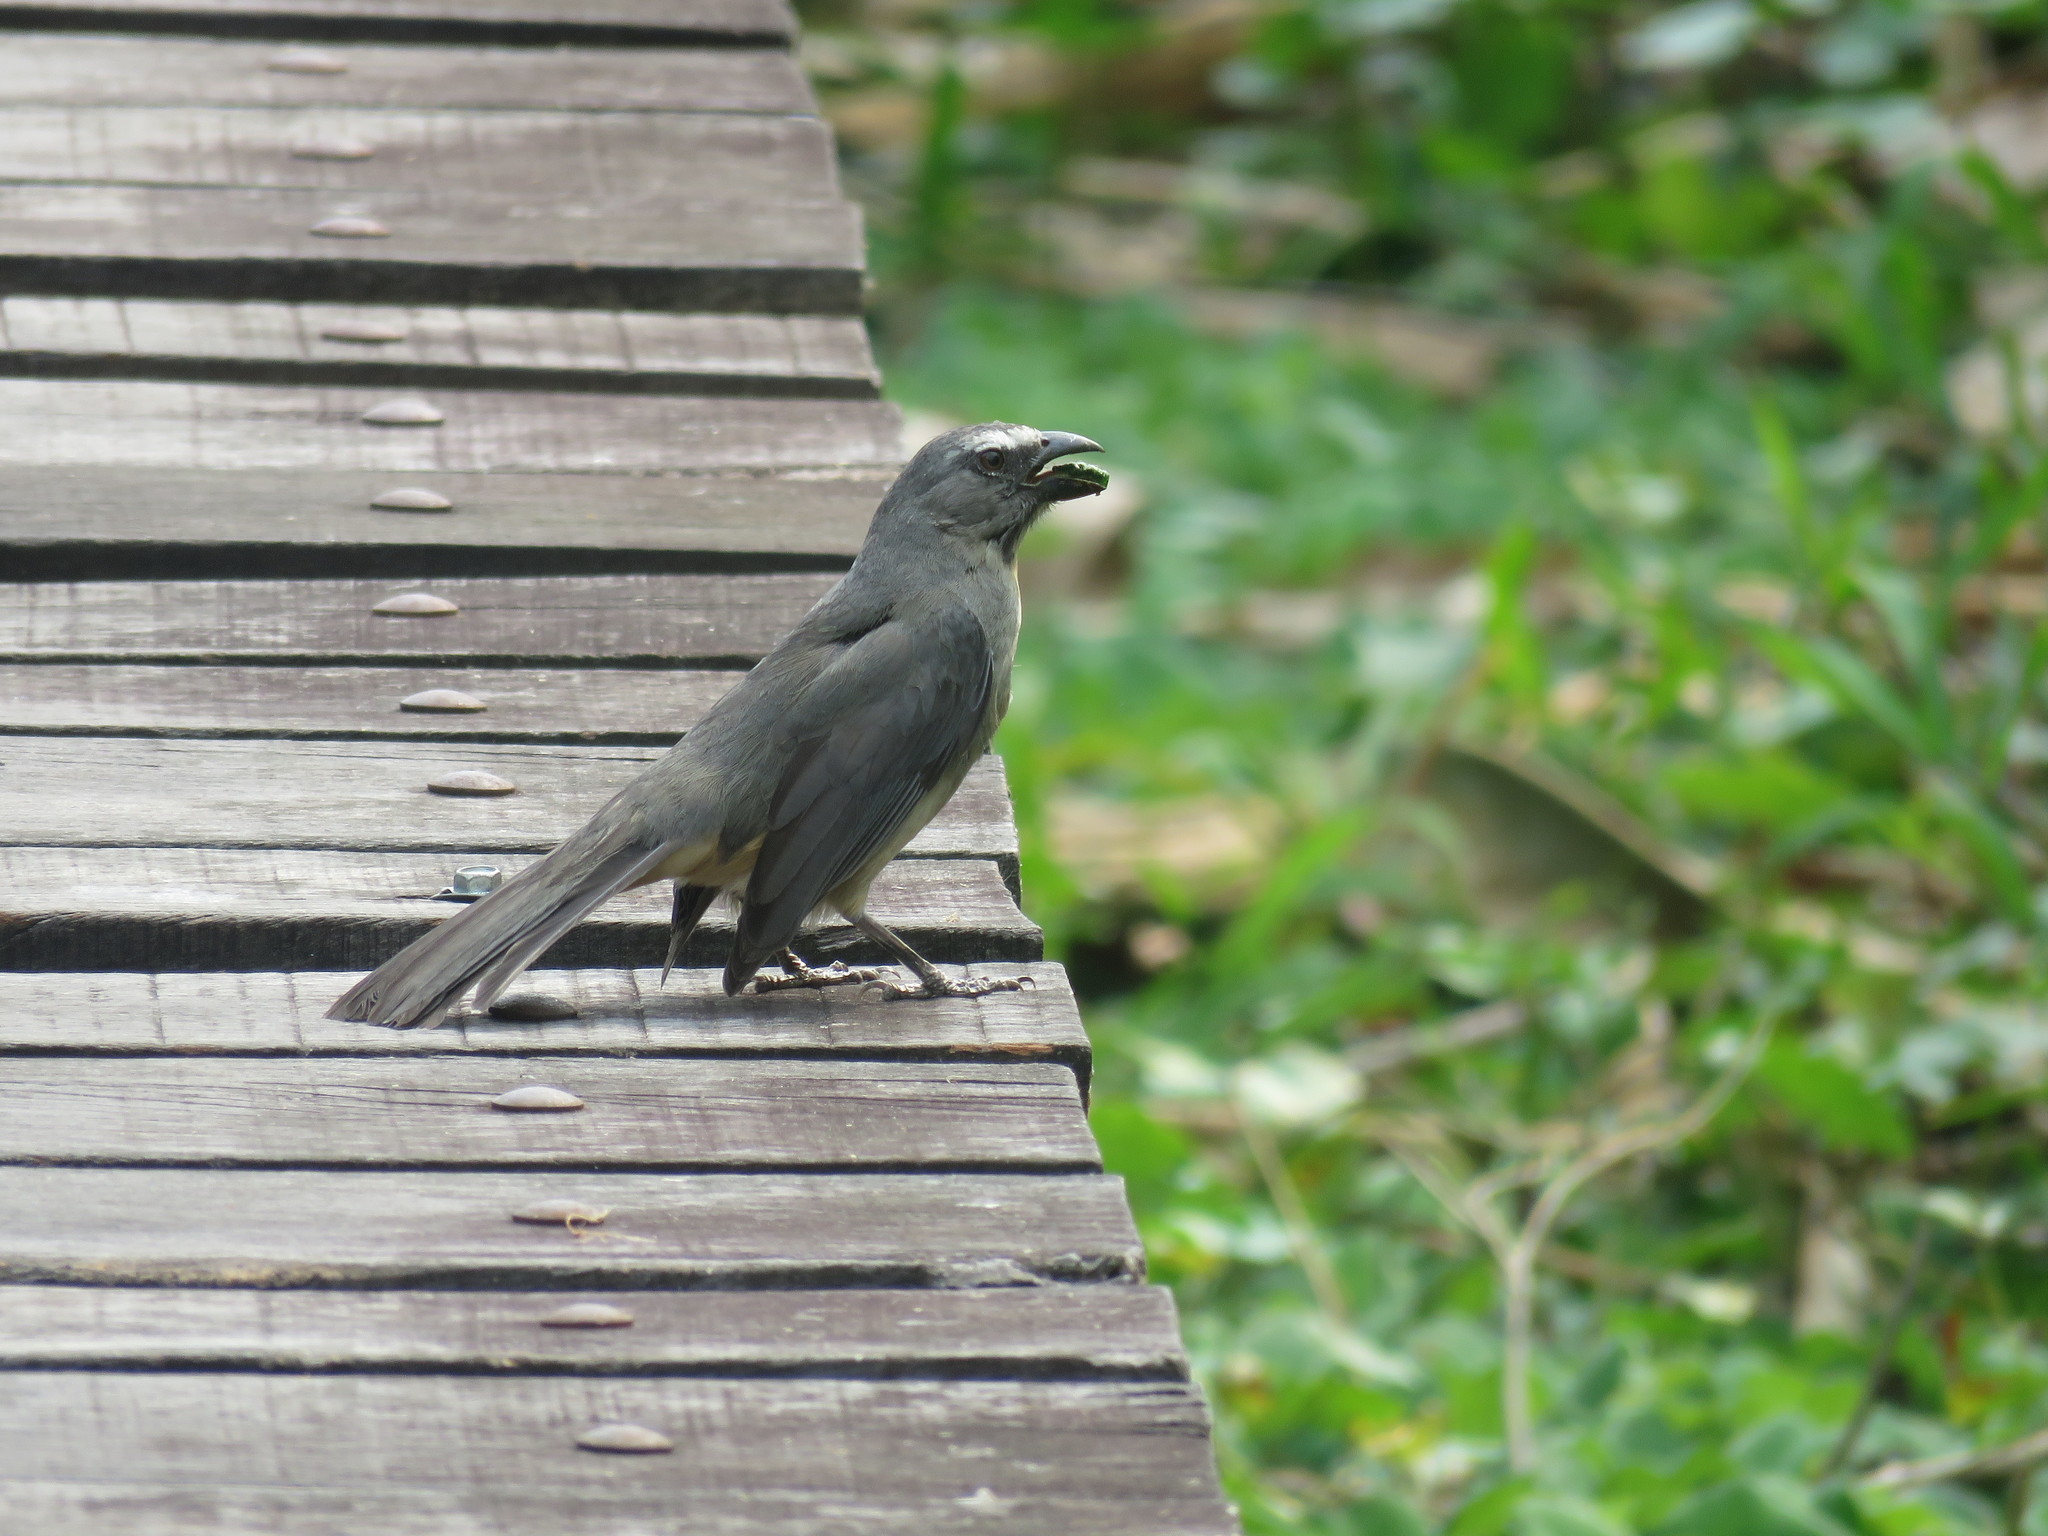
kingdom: Animalia
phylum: Chordata
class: Aves
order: Passeriformes
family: Thraupidae
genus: Saltator
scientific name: Saltator coerulescens
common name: Grayish saltator
